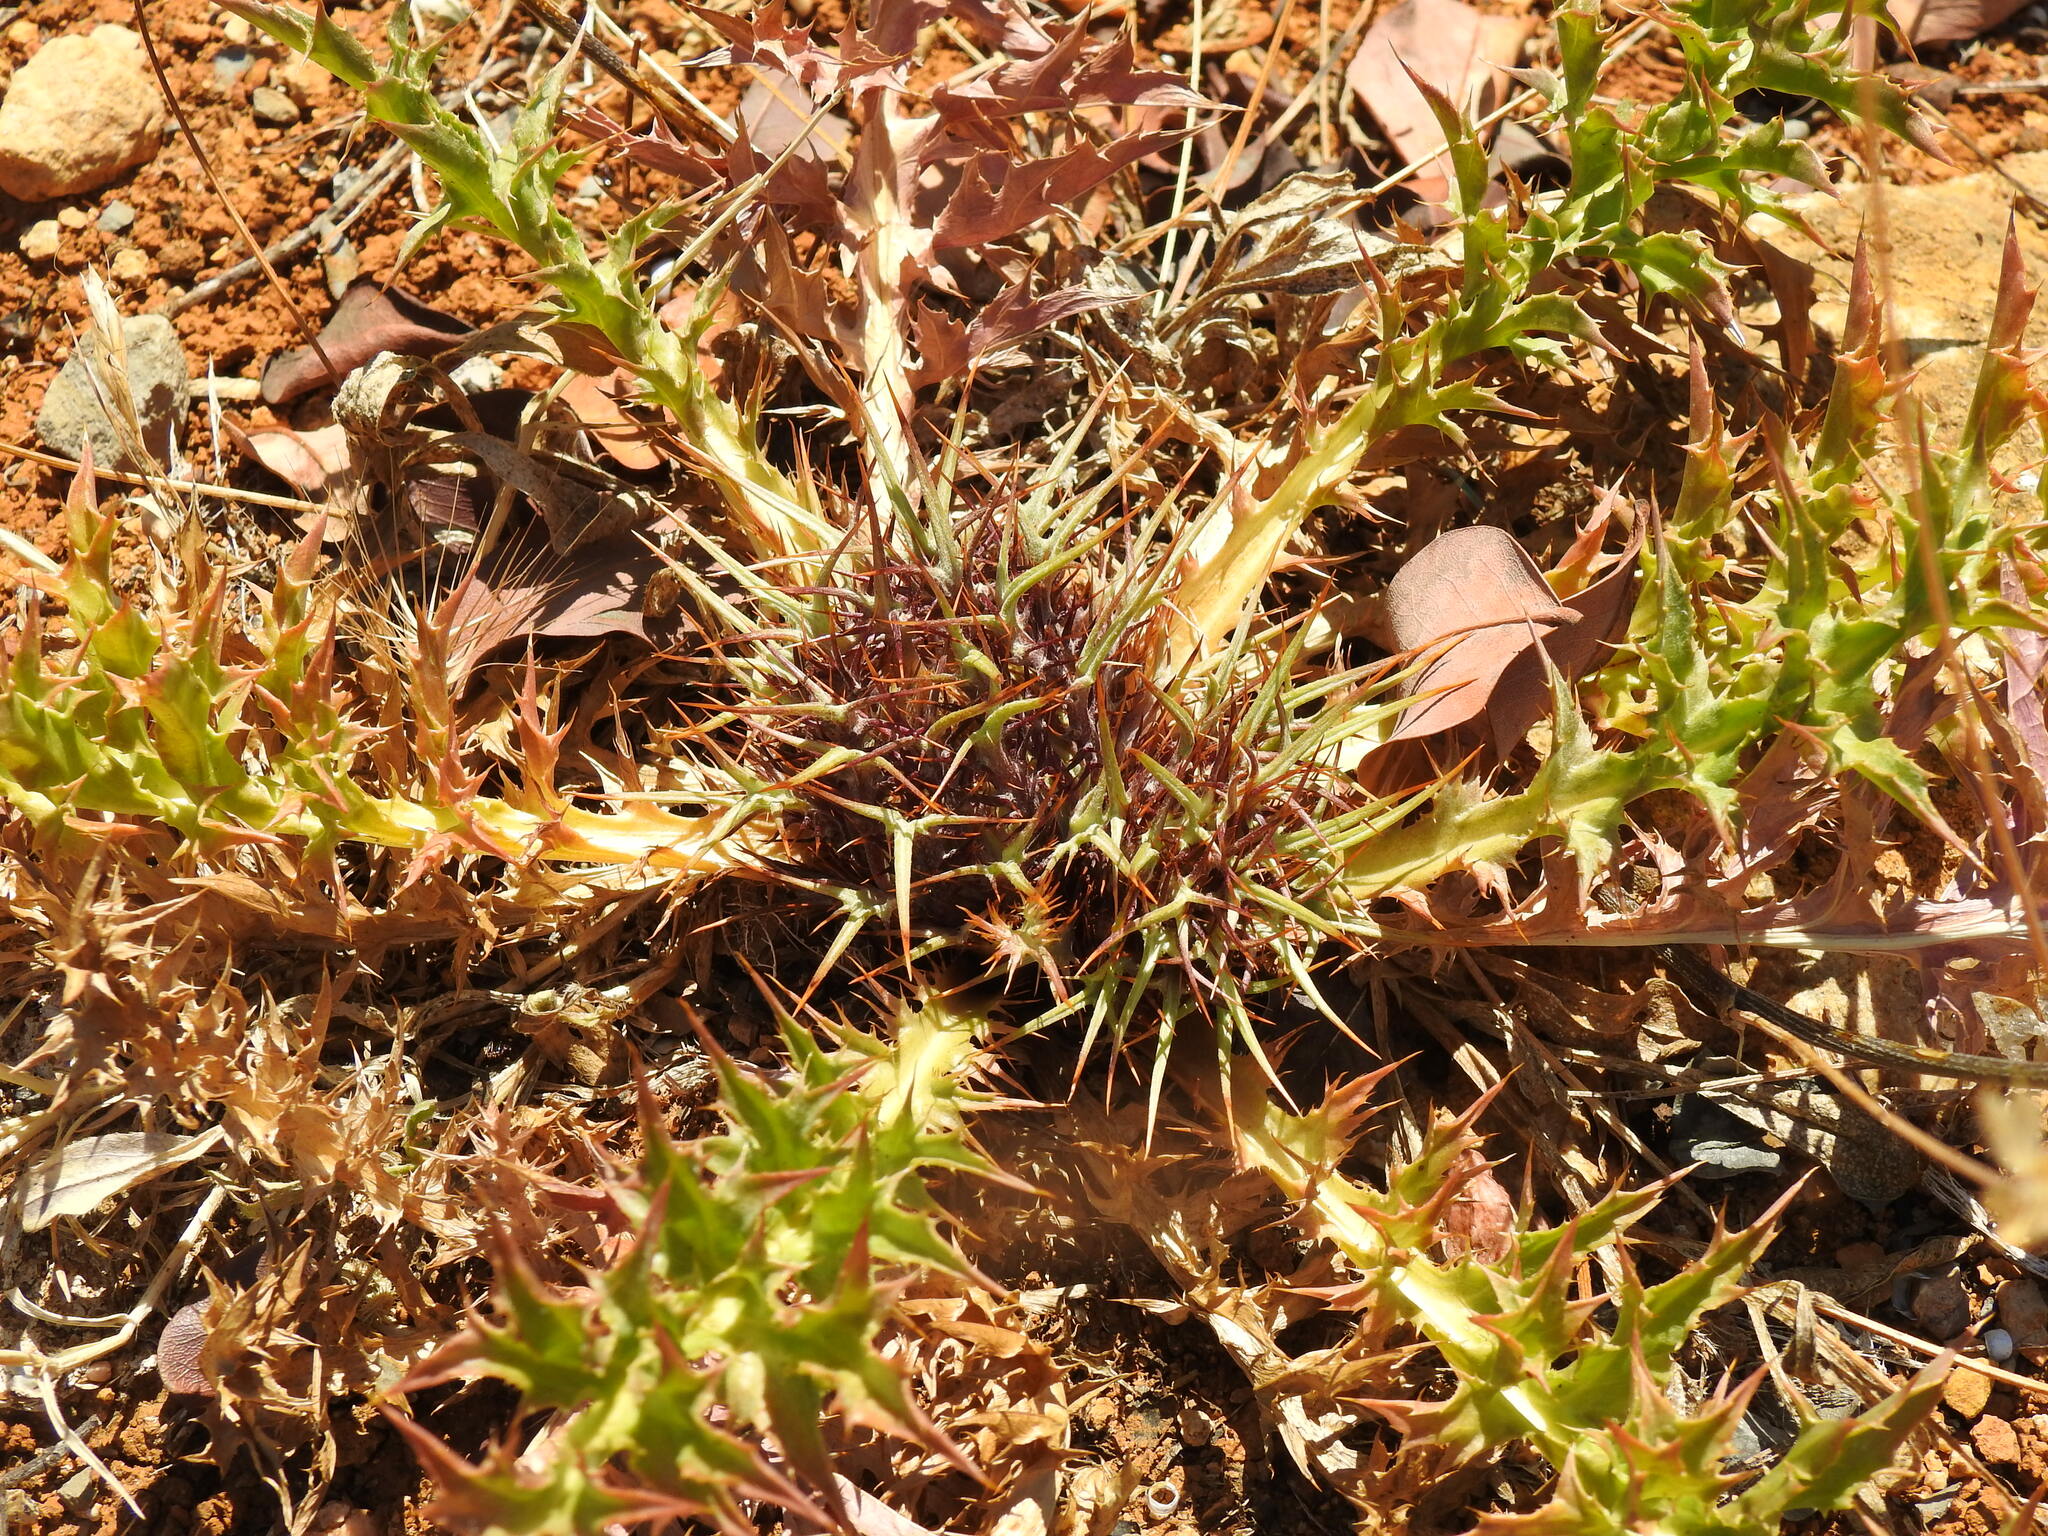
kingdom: Plantae
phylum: Tracheophyta
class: Magnoliopsida
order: Asterales
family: Asteraceae
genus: Chamaeleon
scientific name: Chamaeleon gummifer
